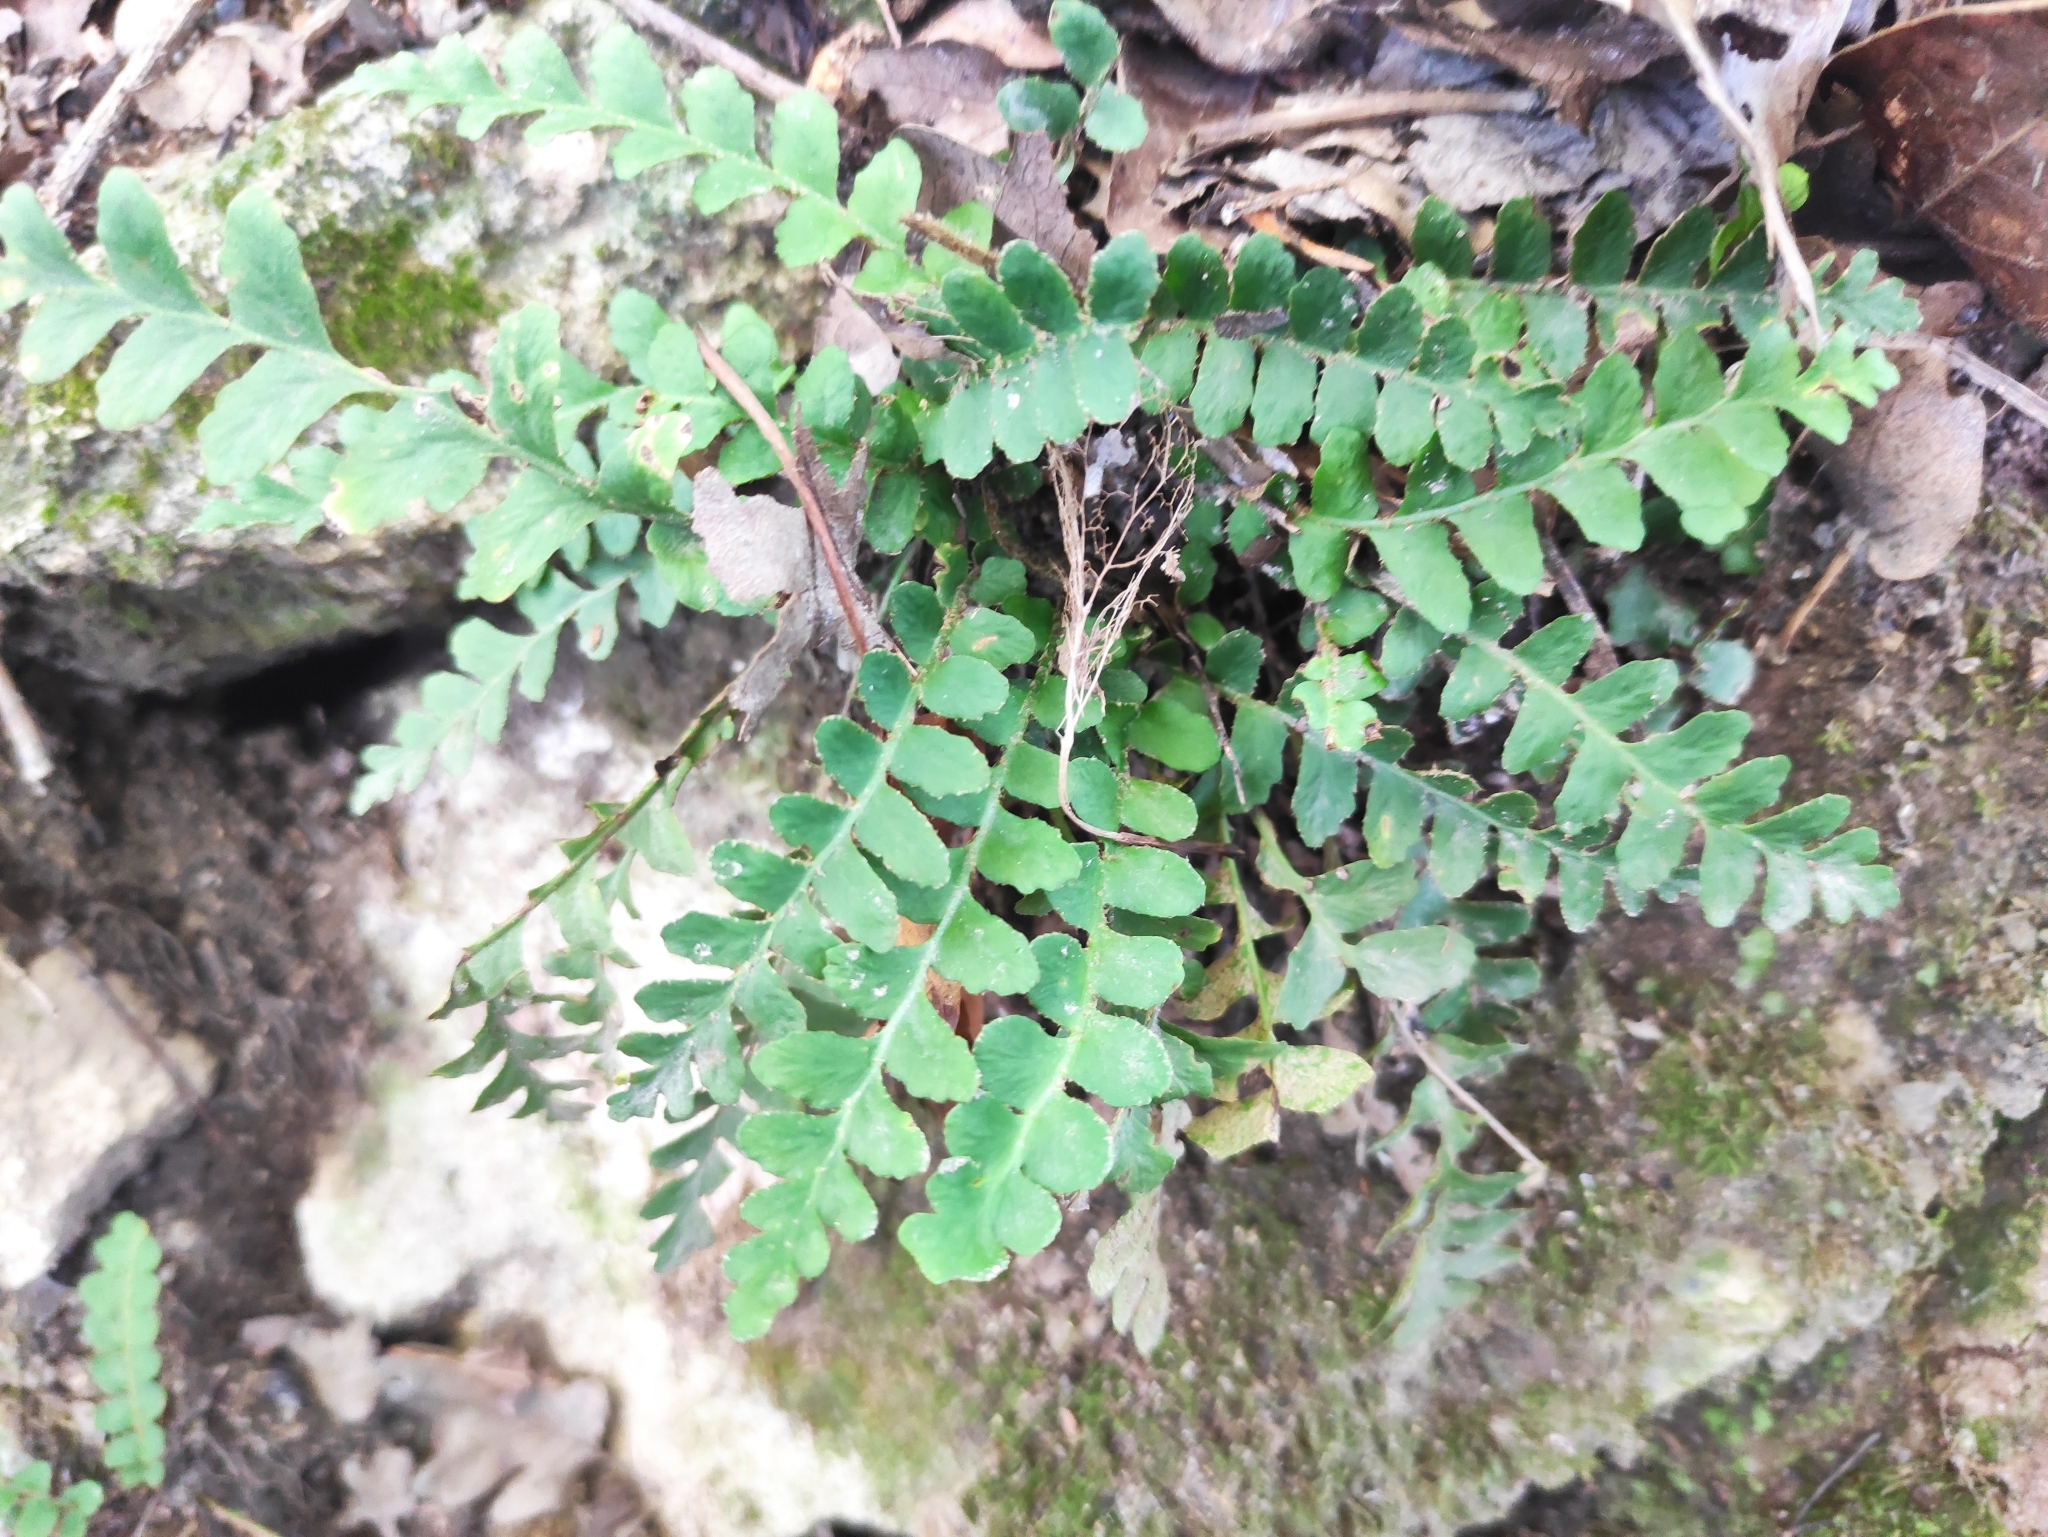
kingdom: Plantae
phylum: Tracheophyta
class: Polypodiopsida
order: Polypodiales
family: Aspleniaceae
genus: Asplenium
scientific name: Asplenium ceterach
